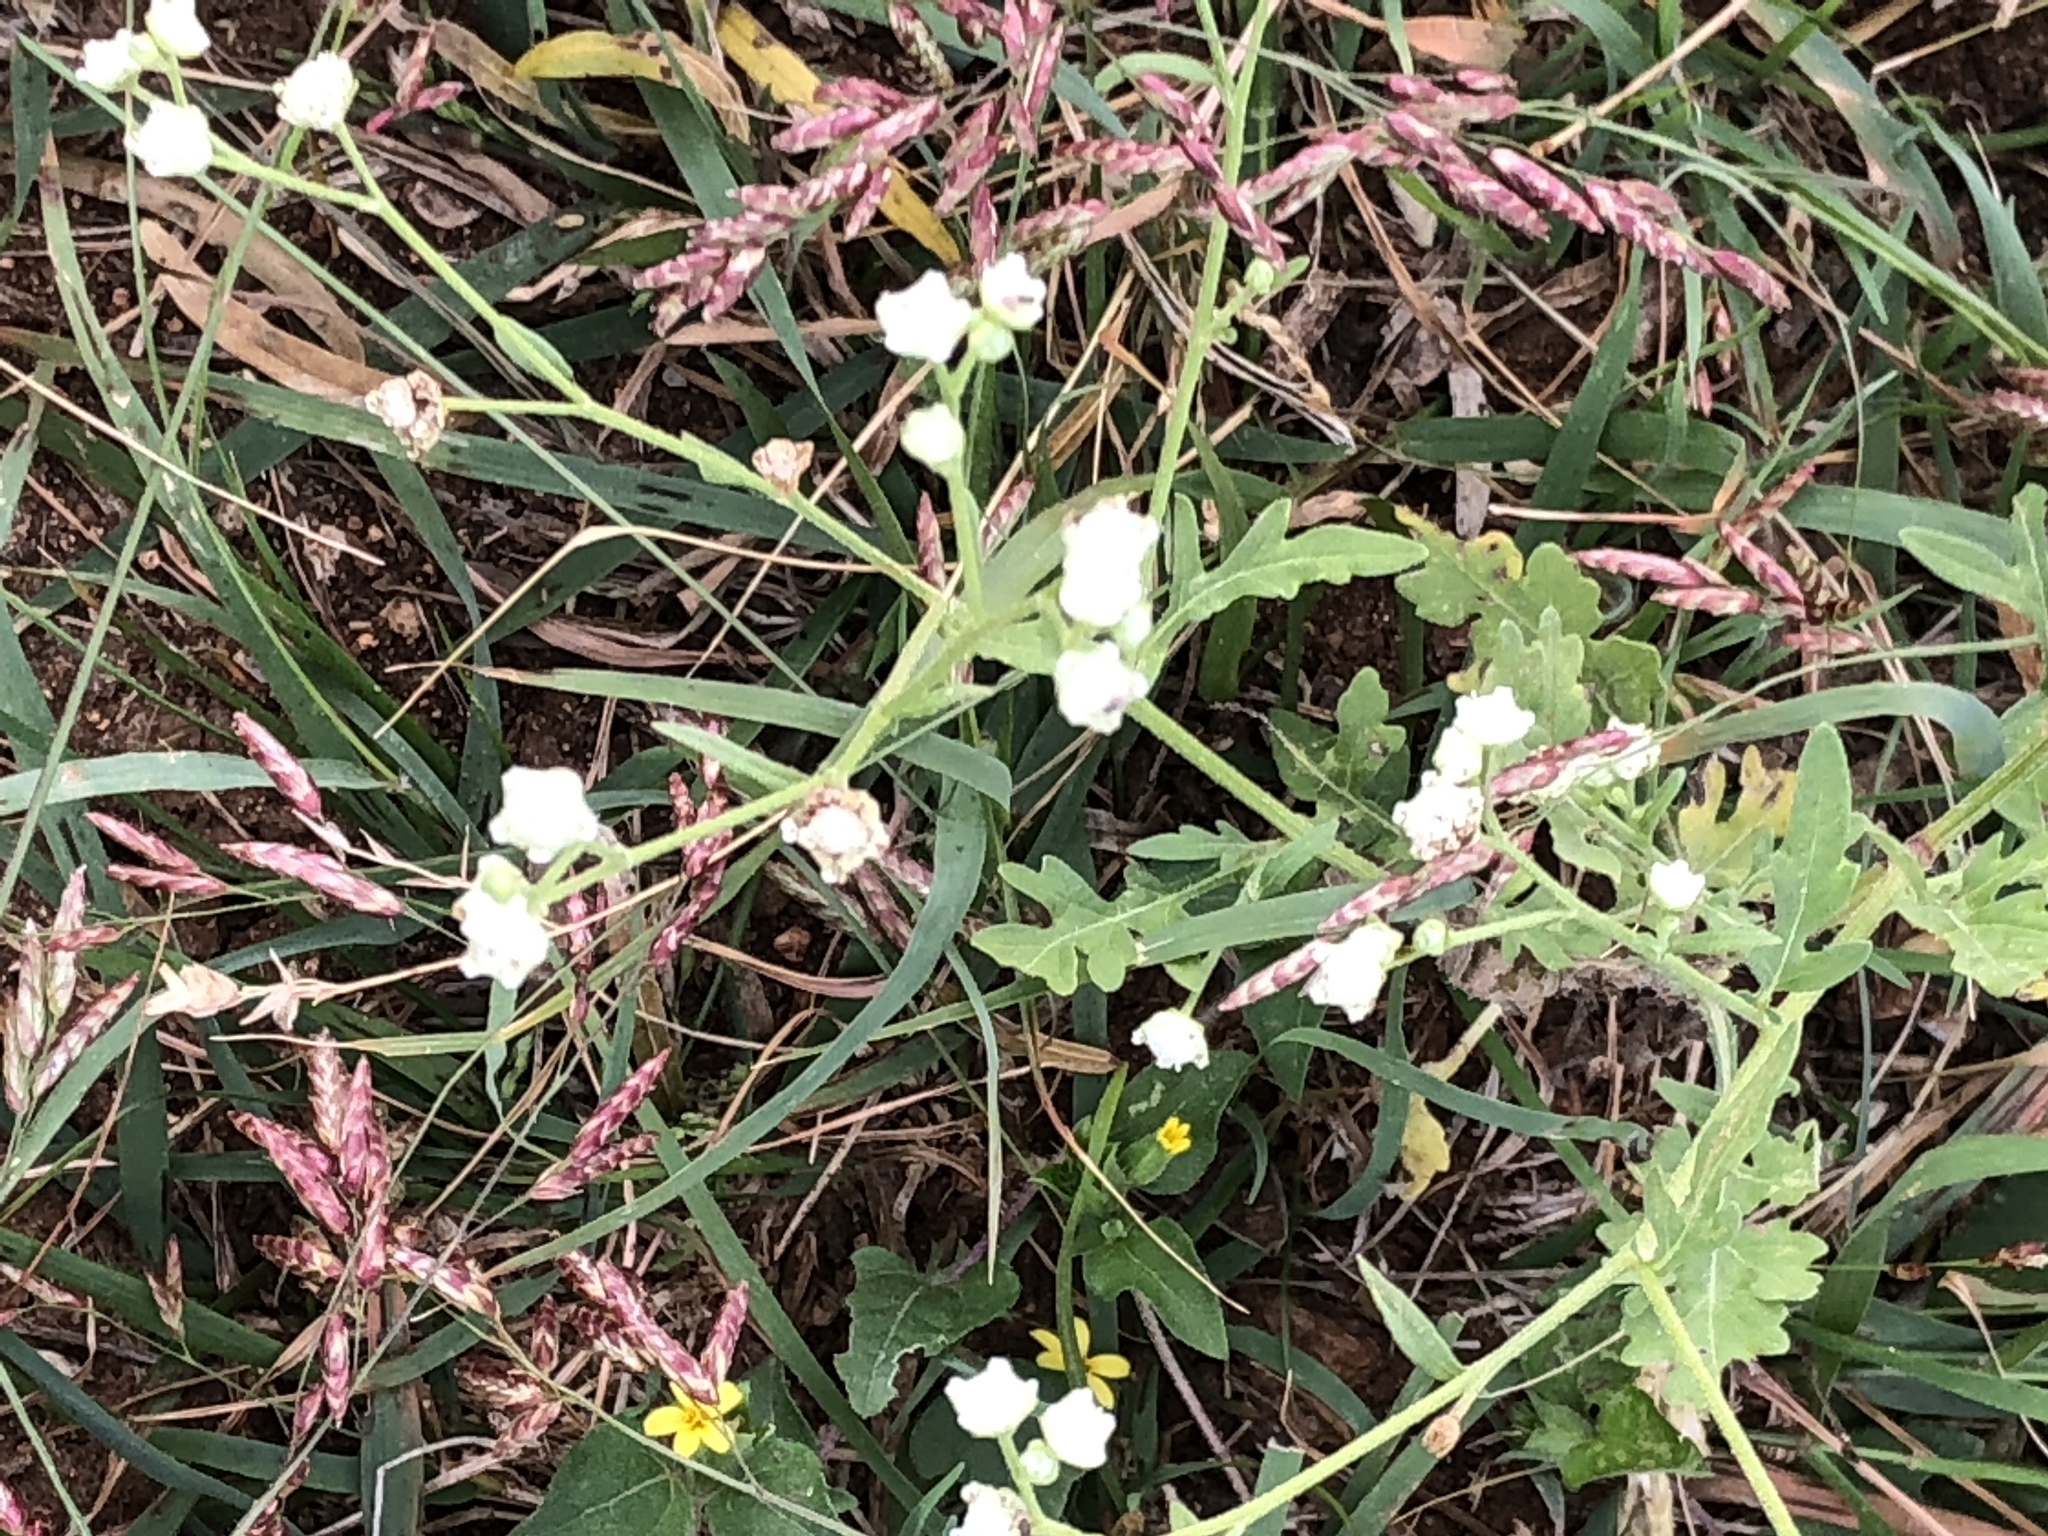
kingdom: Plantae
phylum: Tracheophyta
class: Magnoliopsida
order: Asterales
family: Asteraceae
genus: Parthenium
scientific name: Parthenium hysterophorus
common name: Santa maria feverfew
